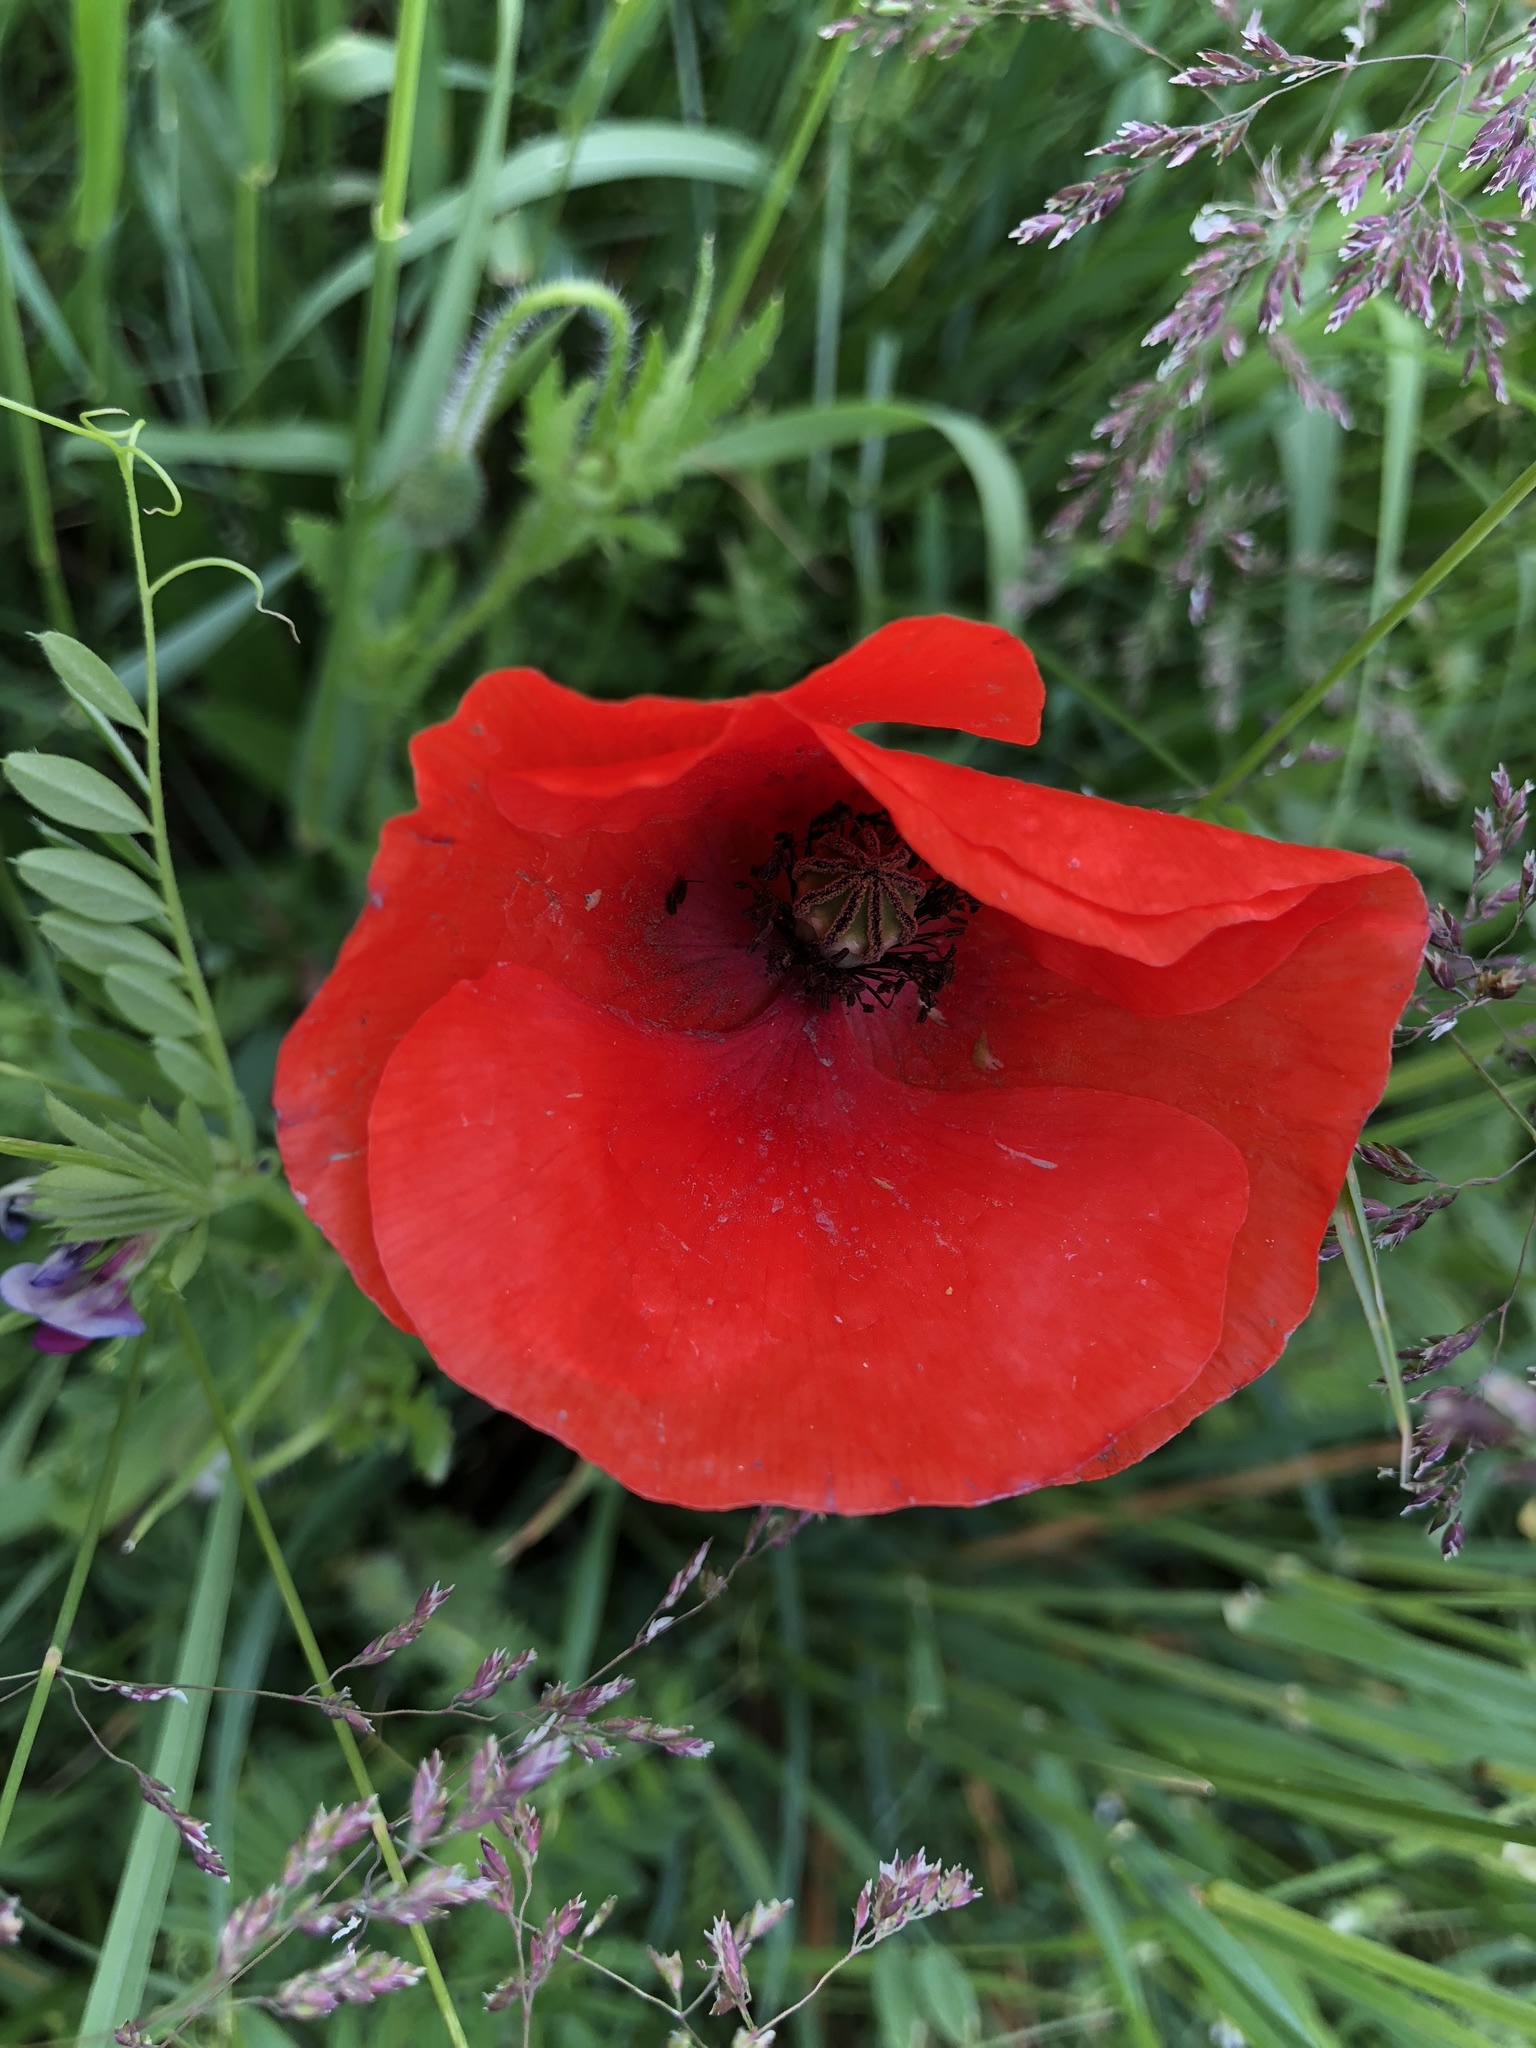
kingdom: Plantae
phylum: Tracheophyta
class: Magnoliopsida
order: Ranunculales
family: Papaveraceae
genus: Papaver
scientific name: Papaver rhoeas
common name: Corn poppy
